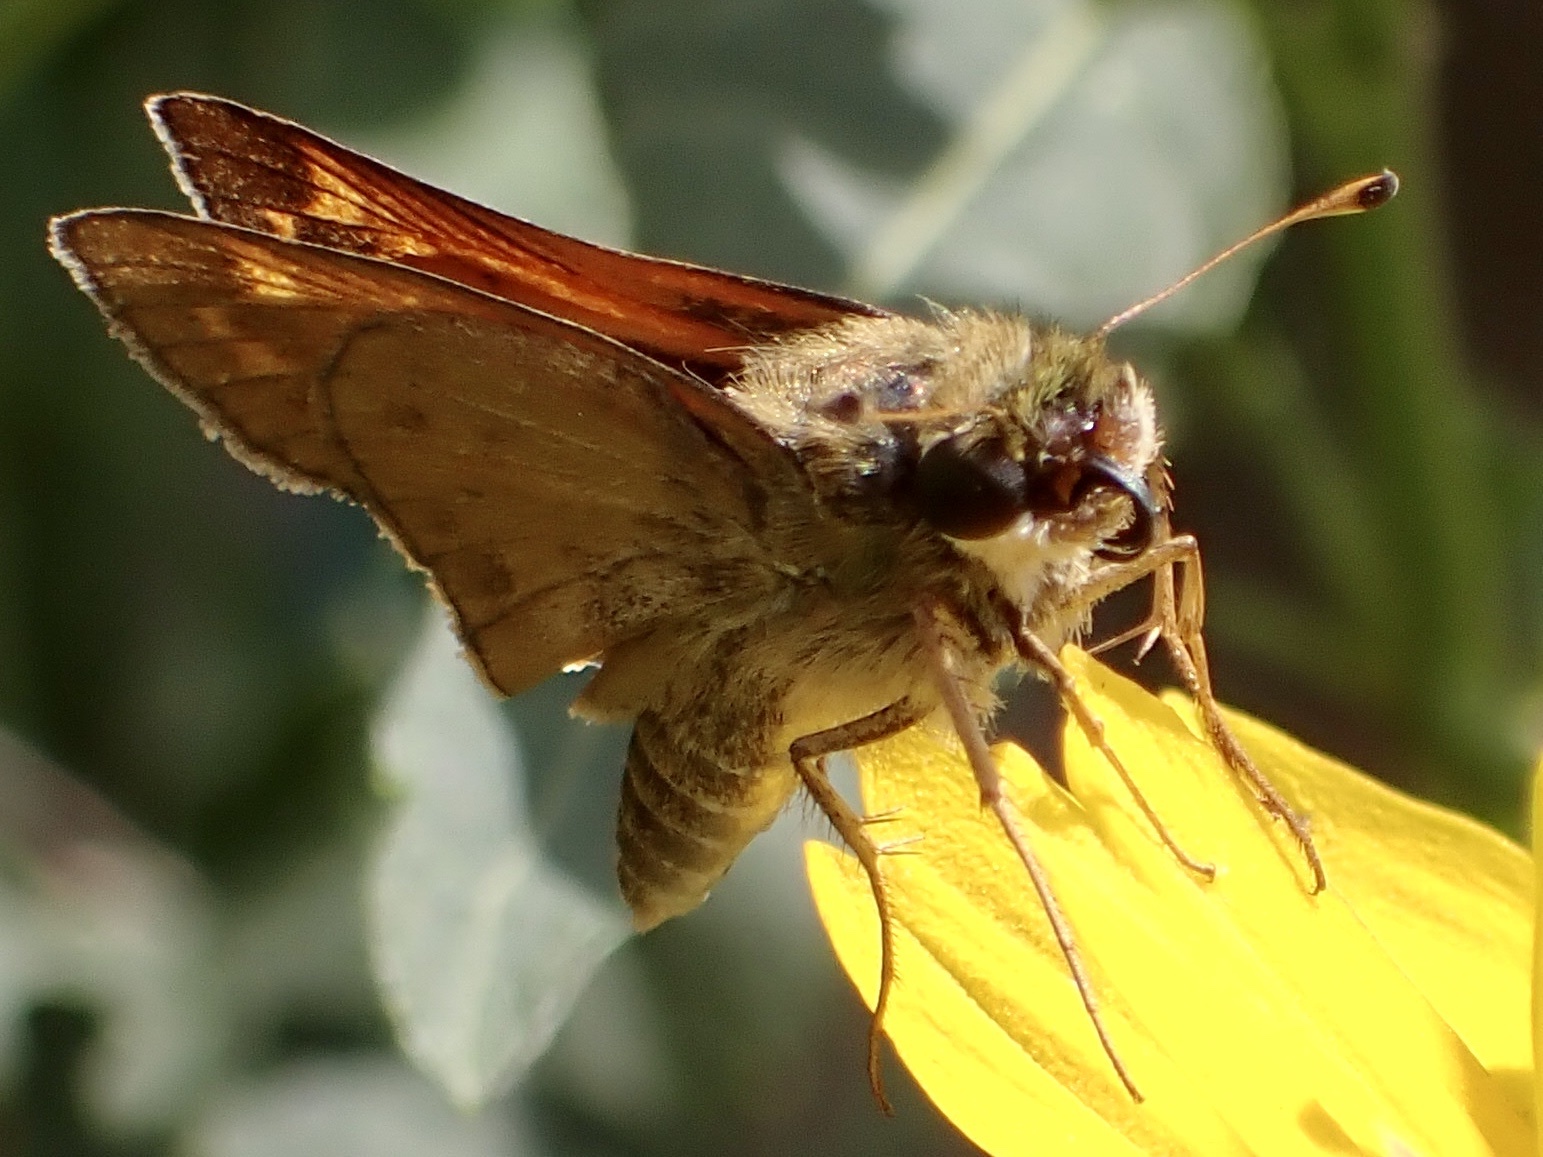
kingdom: Animalia
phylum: Arthropoda
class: Insecta
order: Lepidoptera
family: Hesperiidae
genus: Atalopedes
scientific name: Atalopedes
